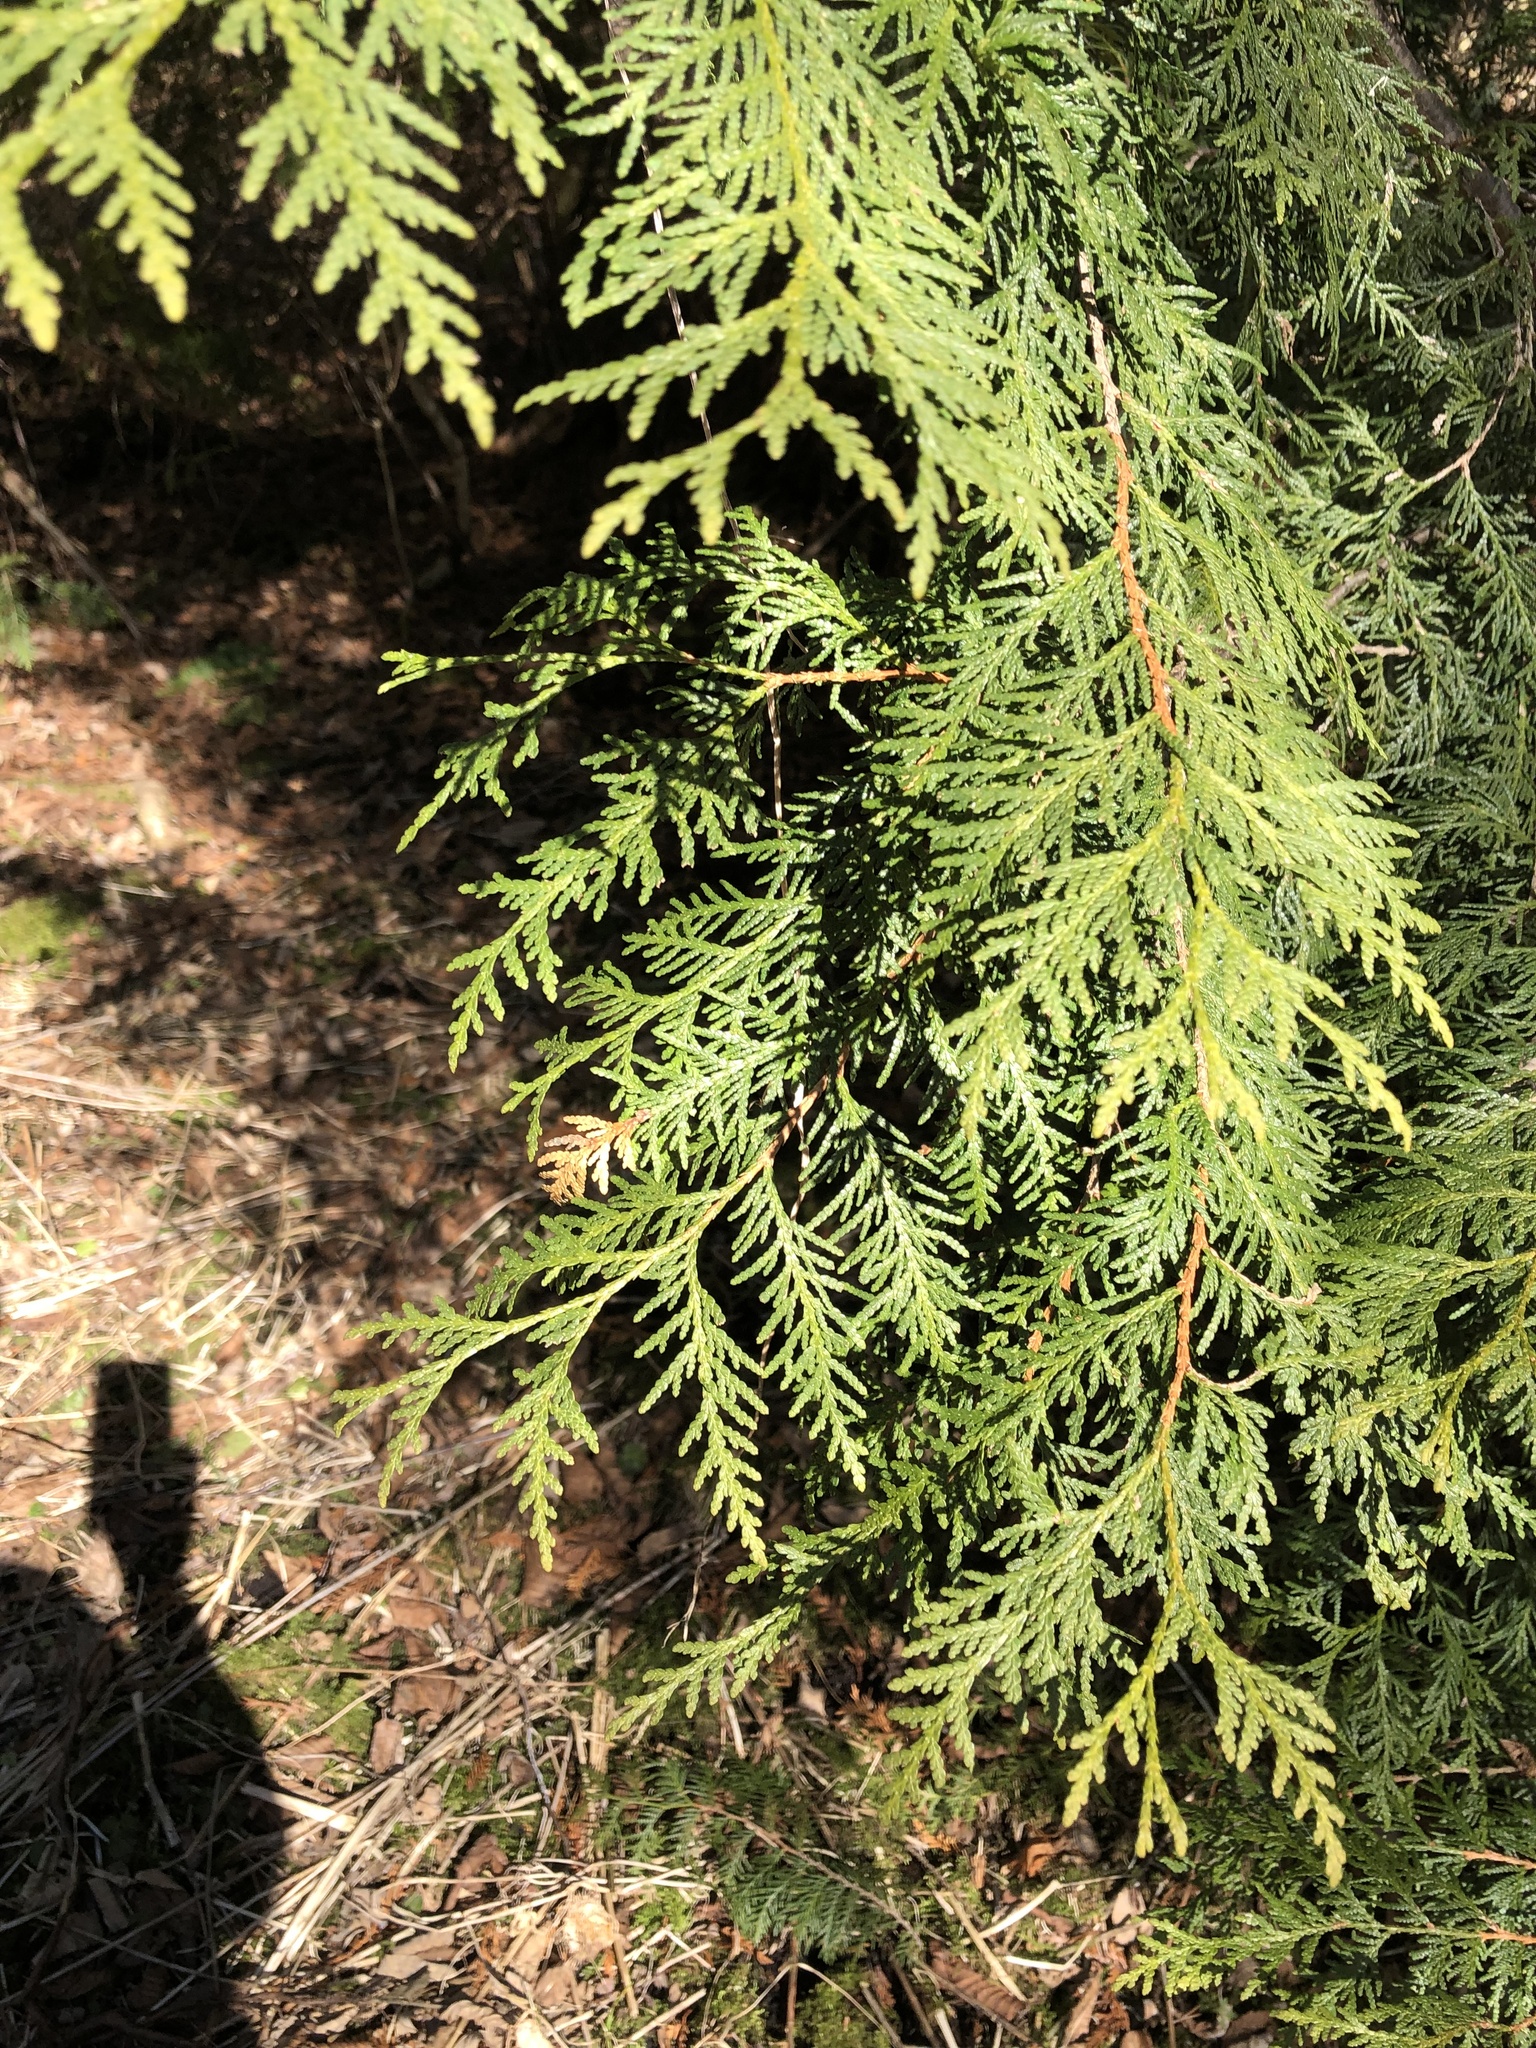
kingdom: Plantae
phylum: Tracheophyta
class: Pinopsida
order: Pinales
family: Cupressaceae
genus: Thuja
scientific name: Thuja occidentalis
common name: Northern white-cedar
